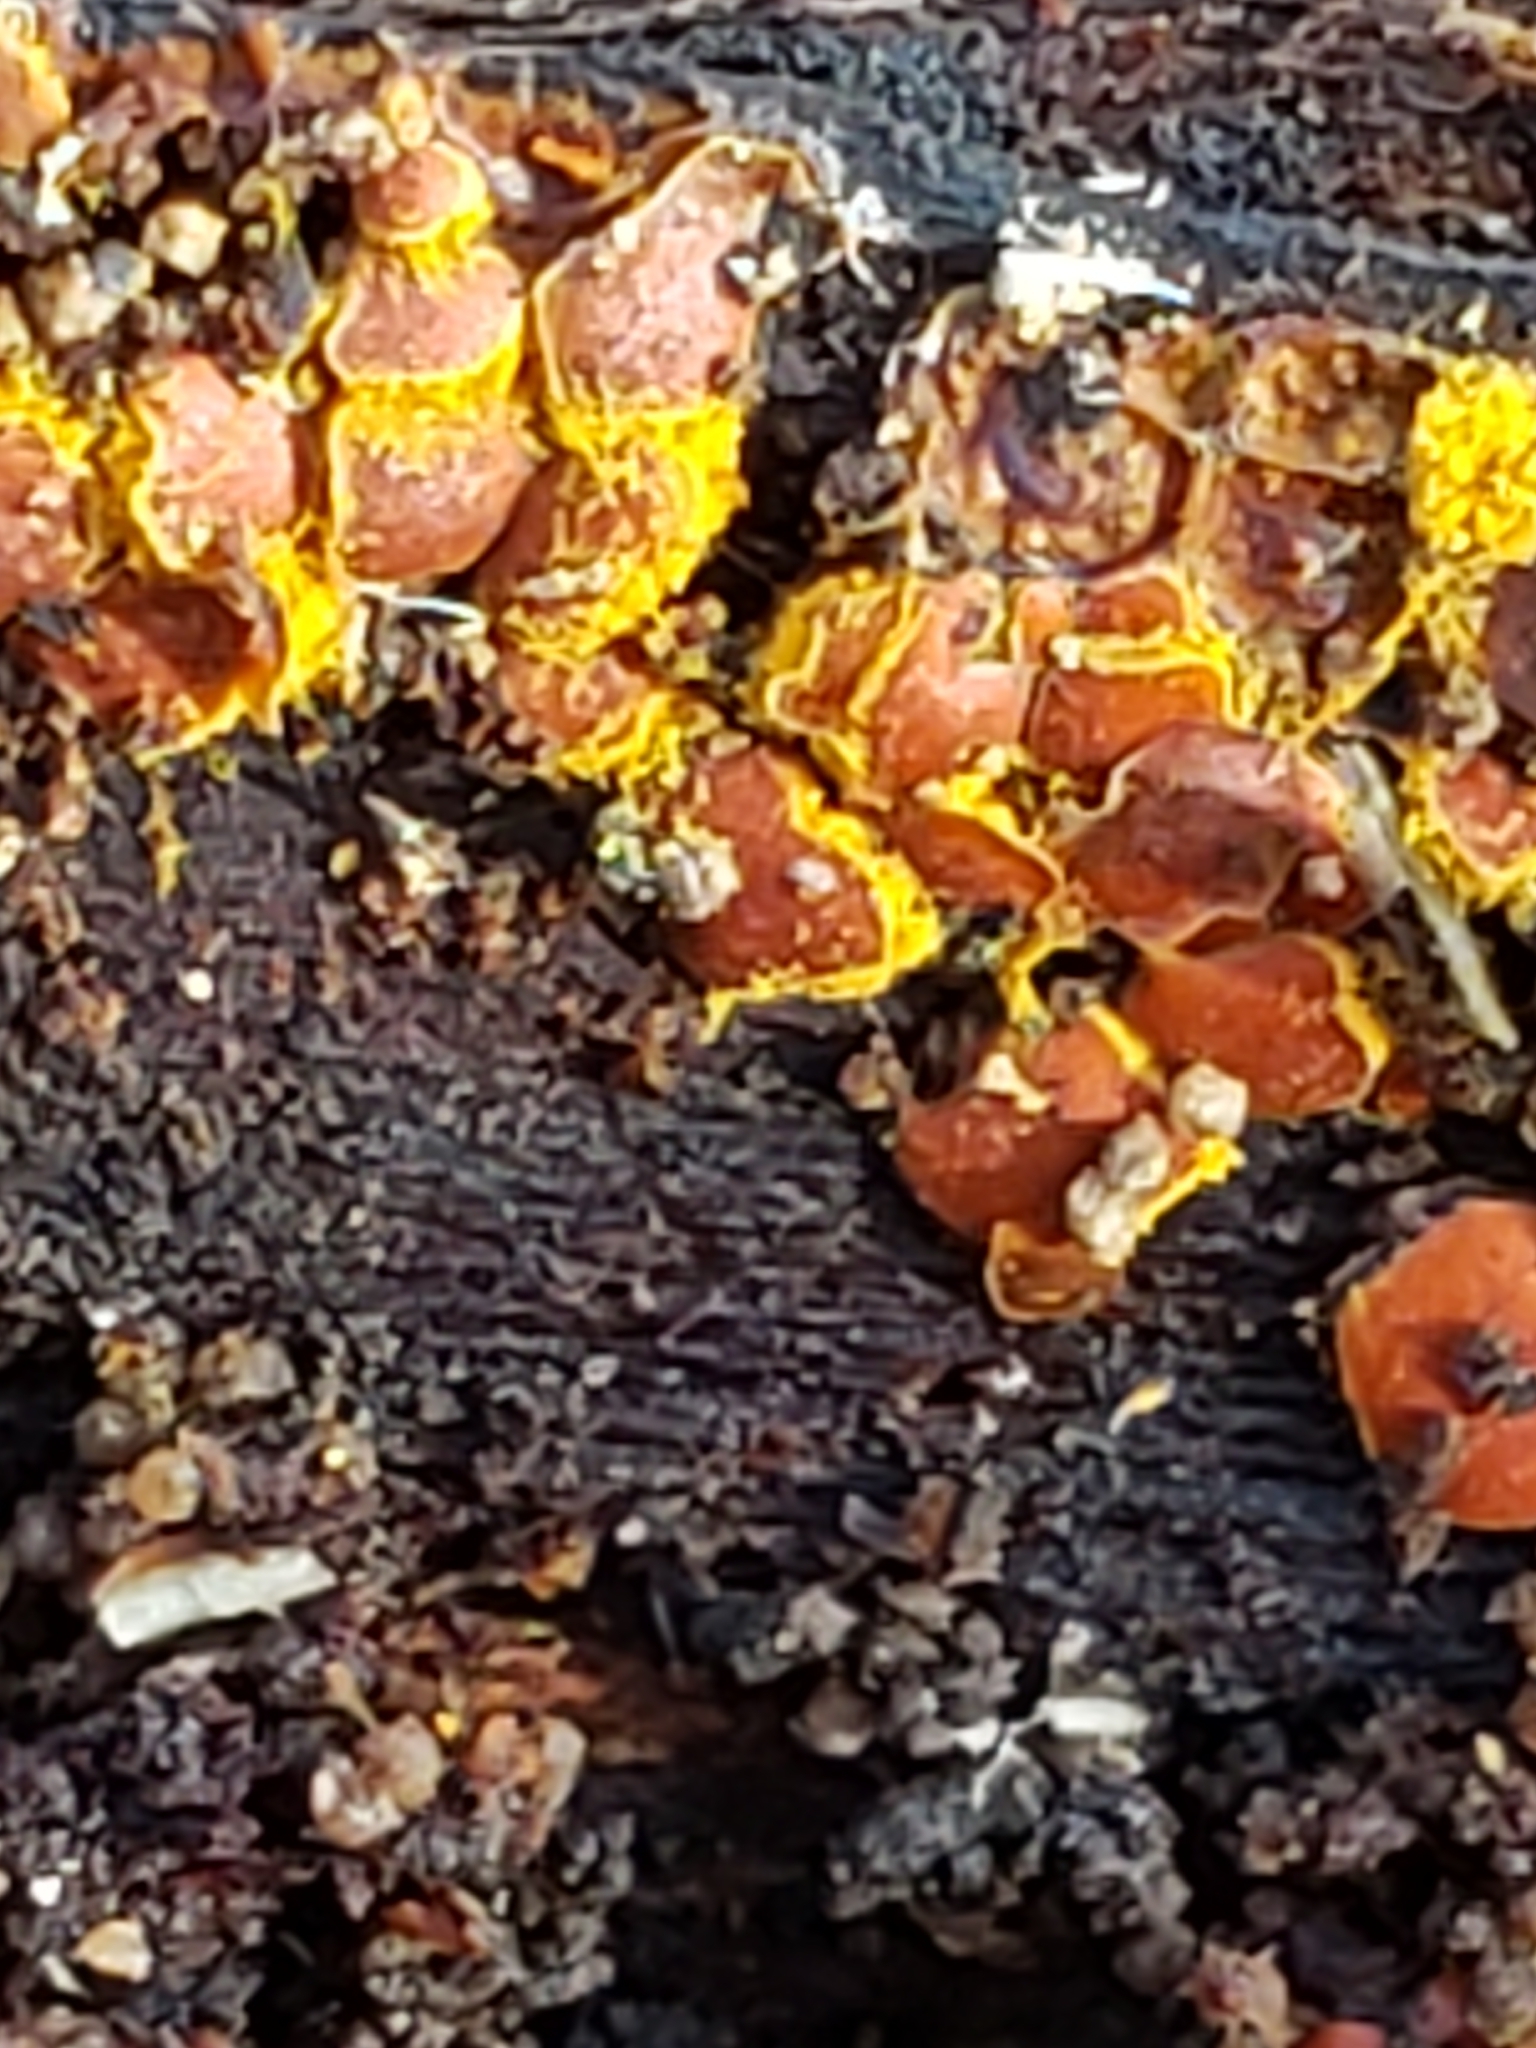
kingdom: Protozoa
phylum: Mycetozoa
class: Myxomycetes
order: Trichiales
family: Trichiaceae
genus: Perichaena
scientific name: Perichaena depressa
